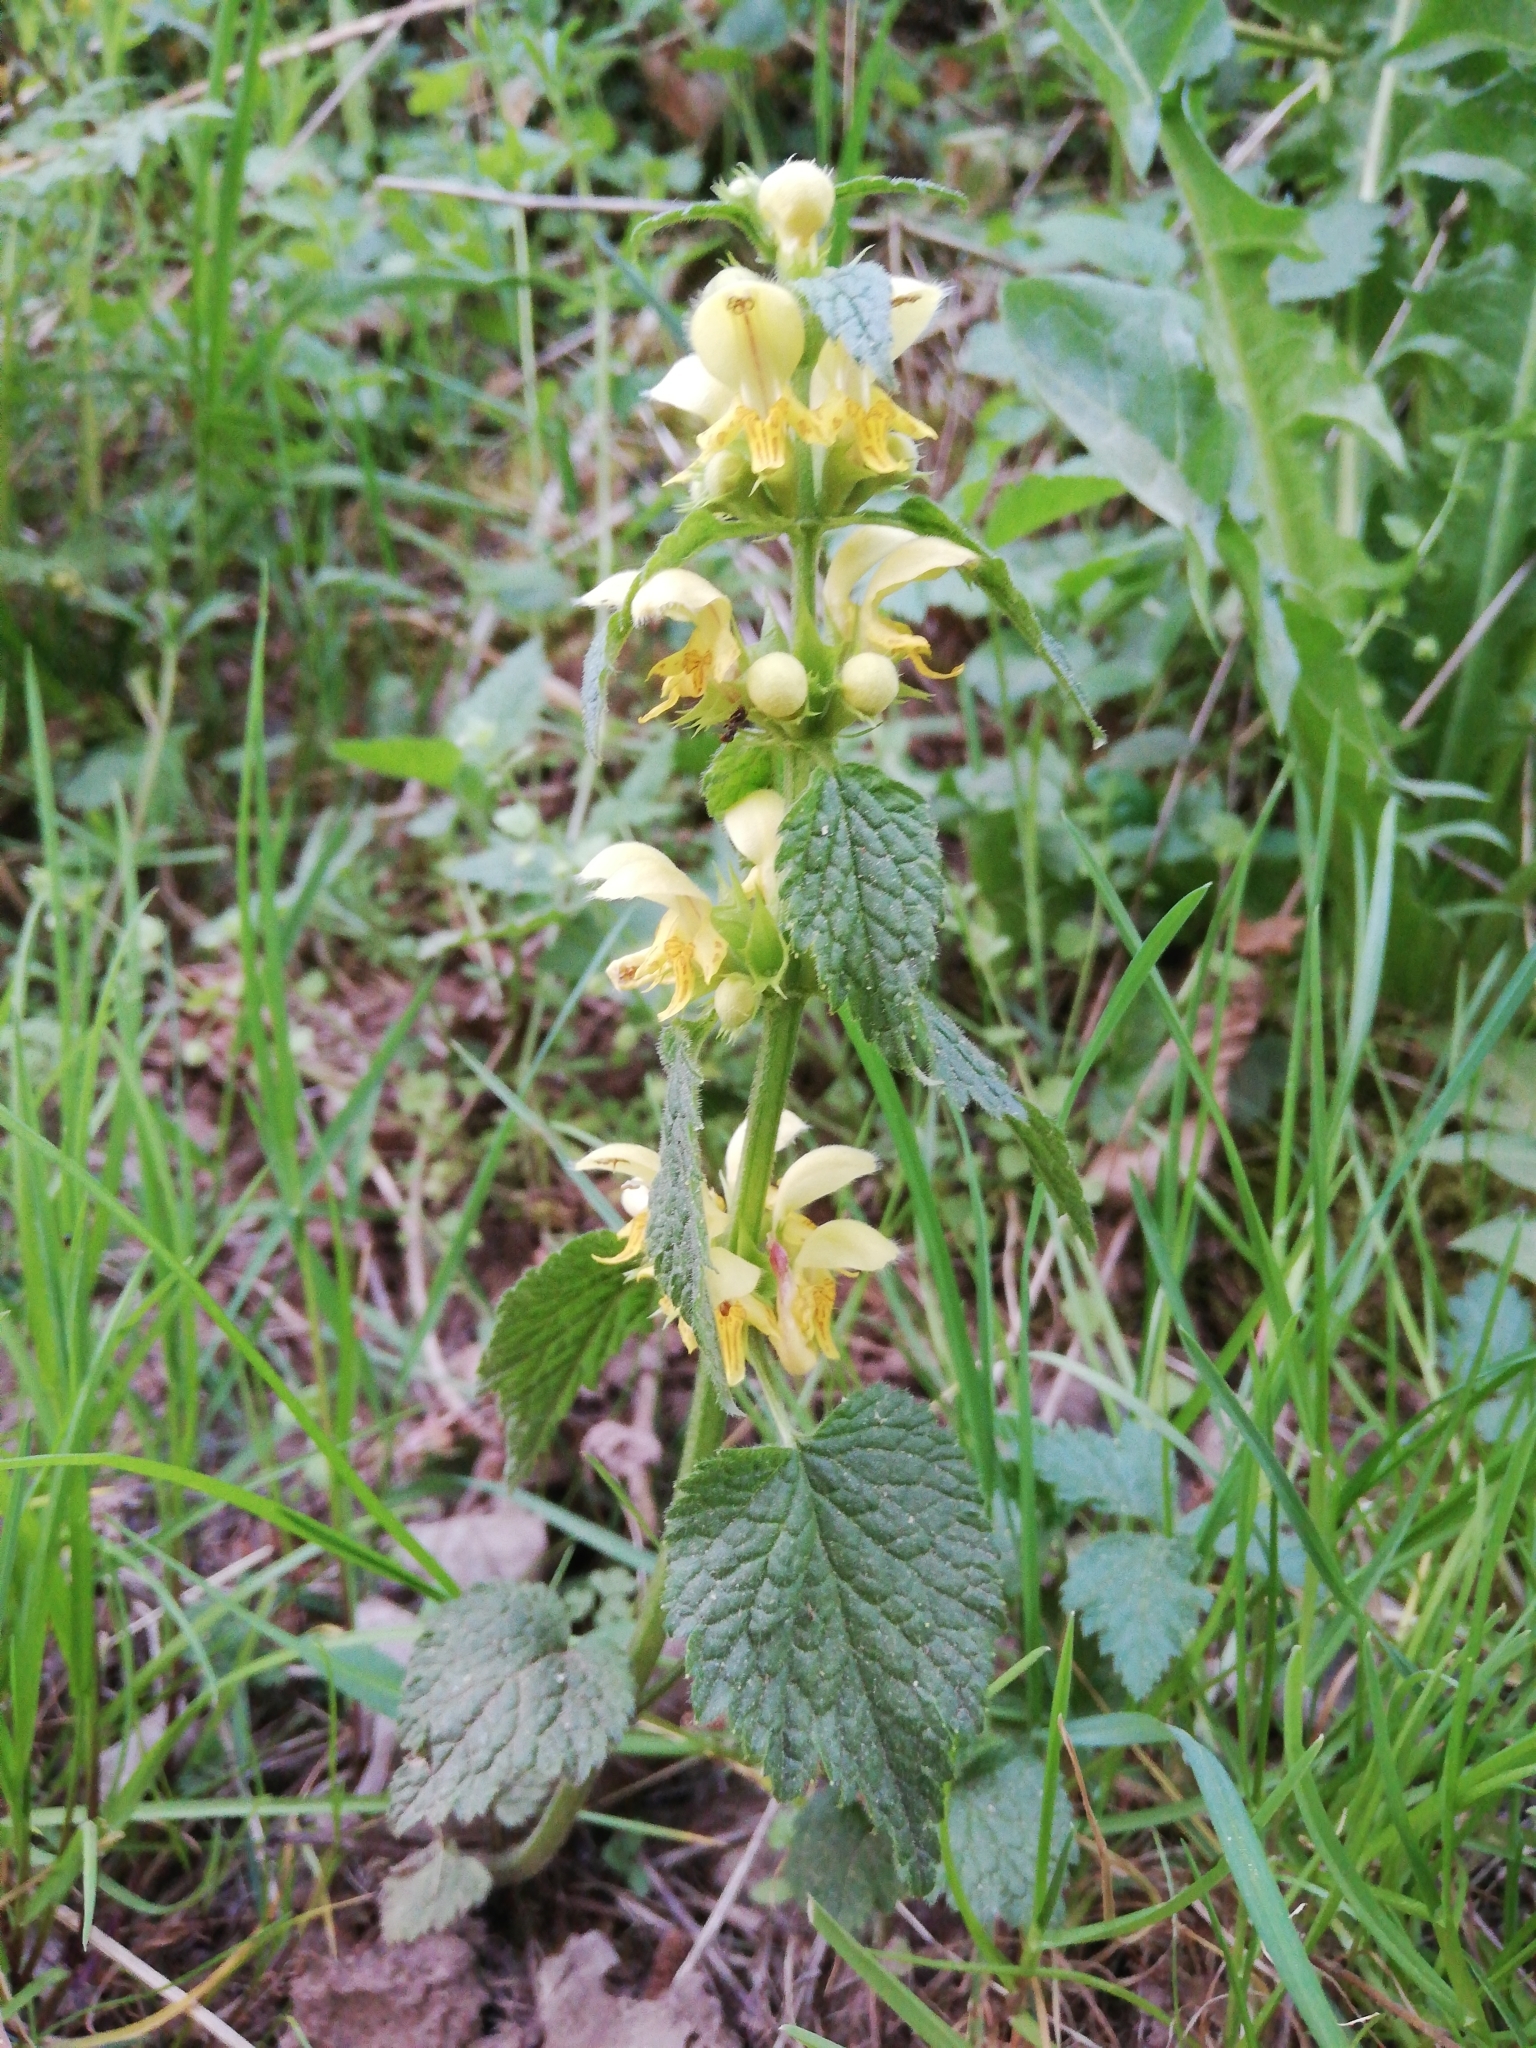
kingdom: Plantae
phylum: Tracheophyta
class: Magnoliopsida
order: Lamiales
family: Lamiaceae
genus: Lamium
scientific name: Lamium galeobdolon
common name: Yellow archangel
